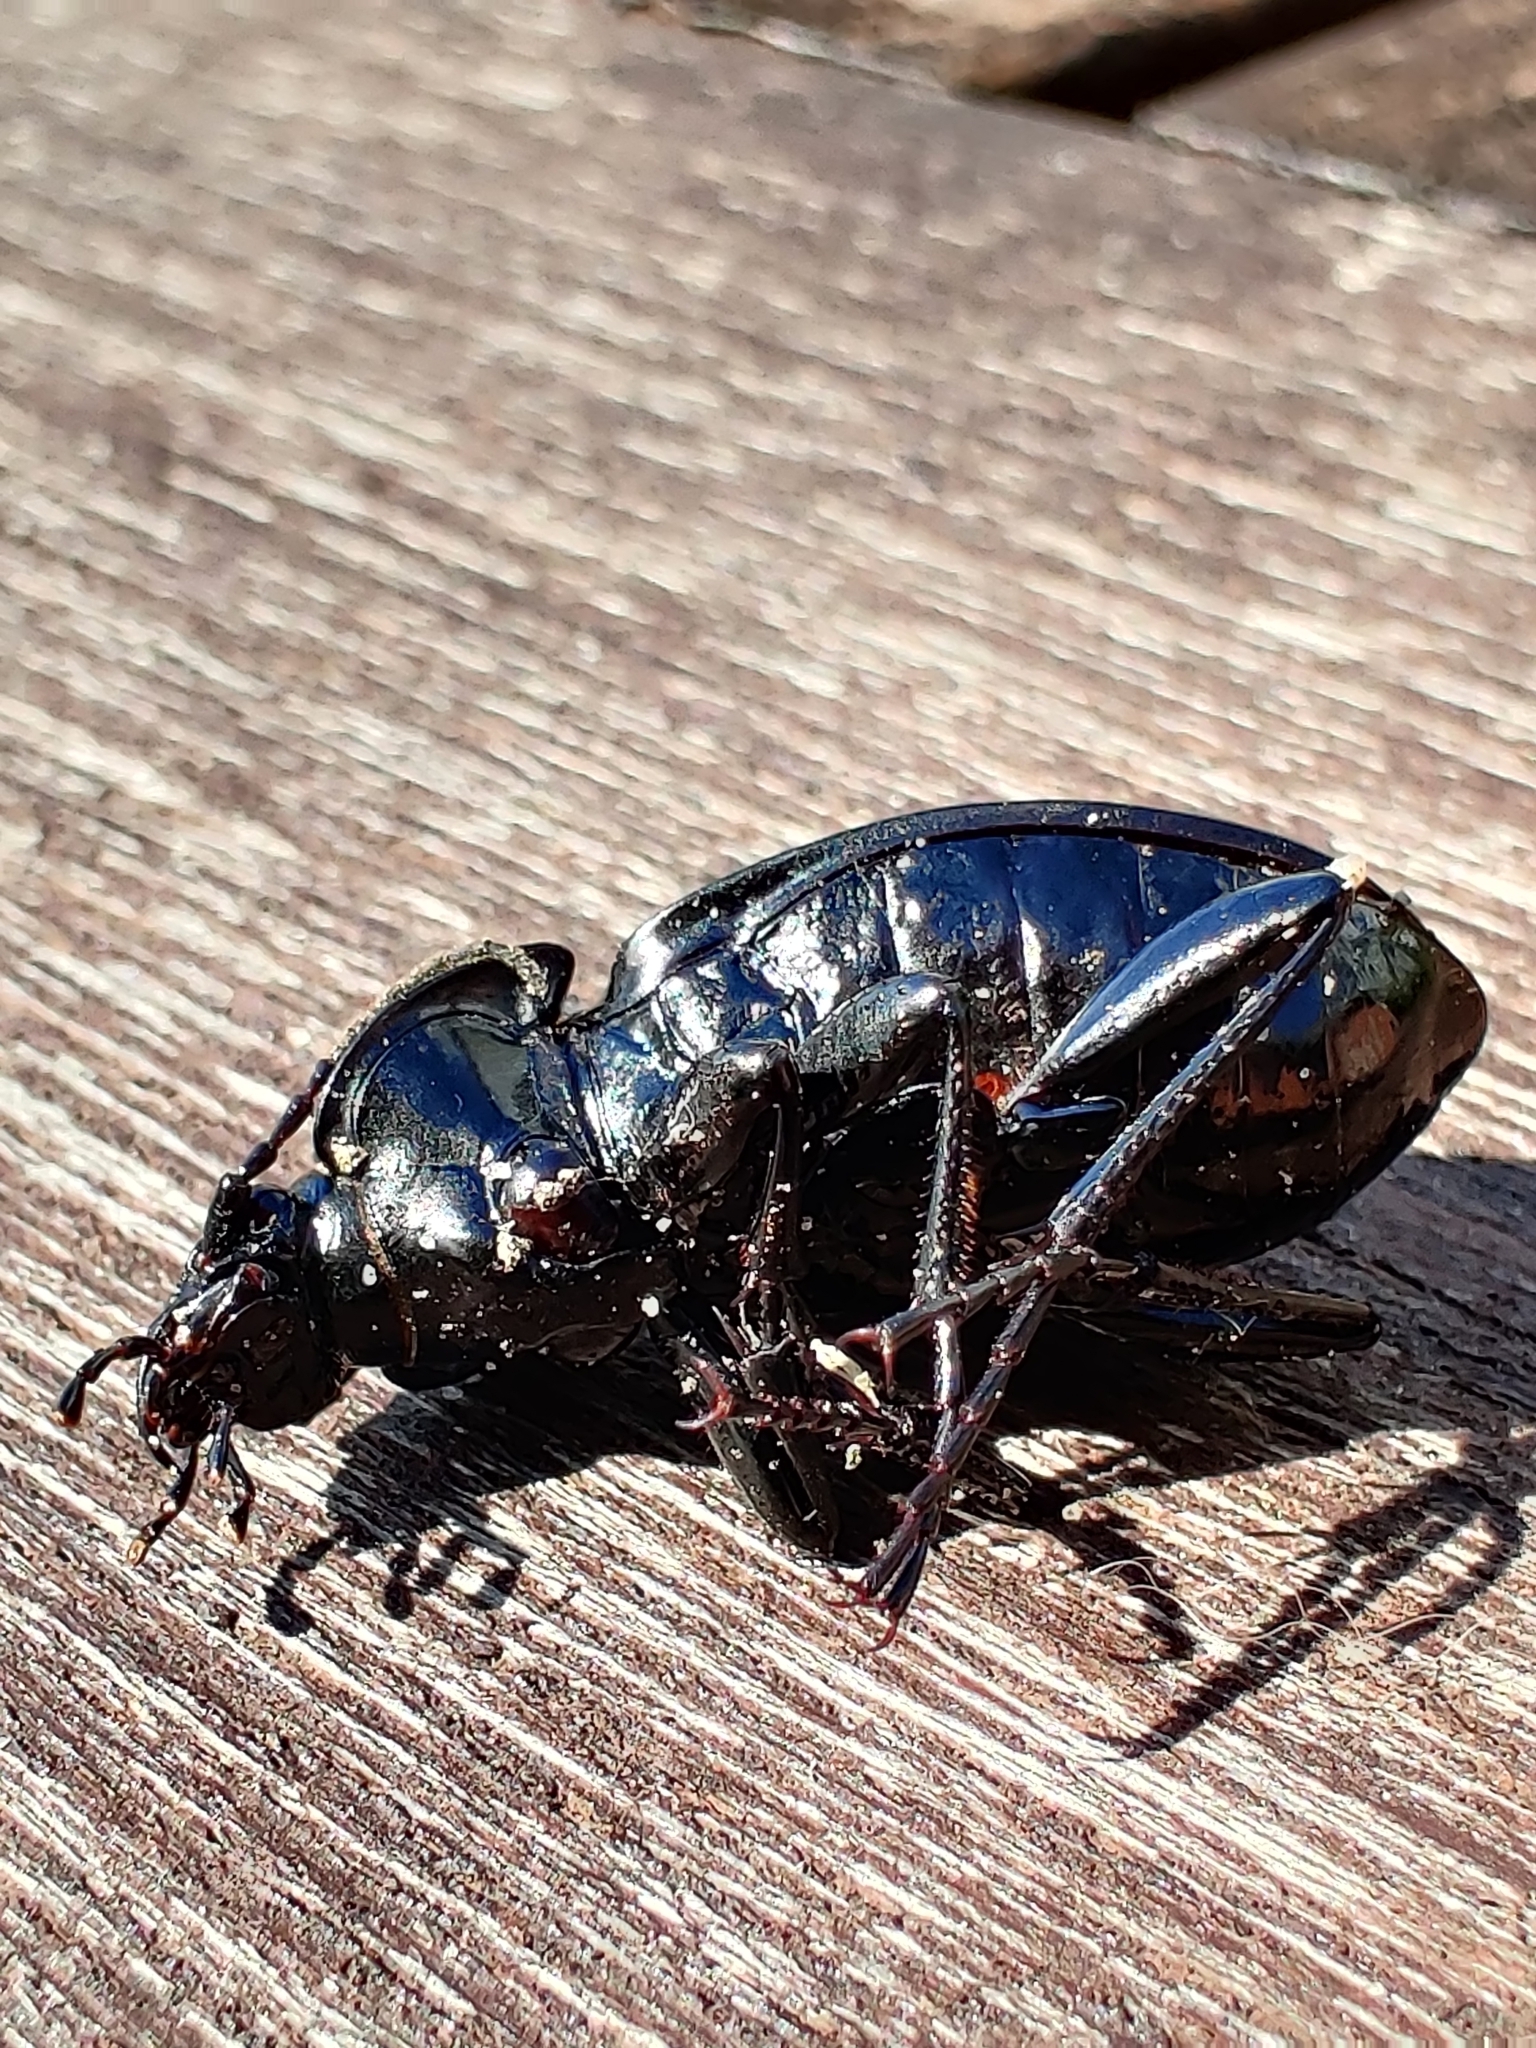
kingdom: Animalia
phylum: Arthropoda
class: Insecta
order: Coleoptera
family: Carabidae
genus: Carabus
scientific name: Carabus nemoralis
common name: European ground beetle
